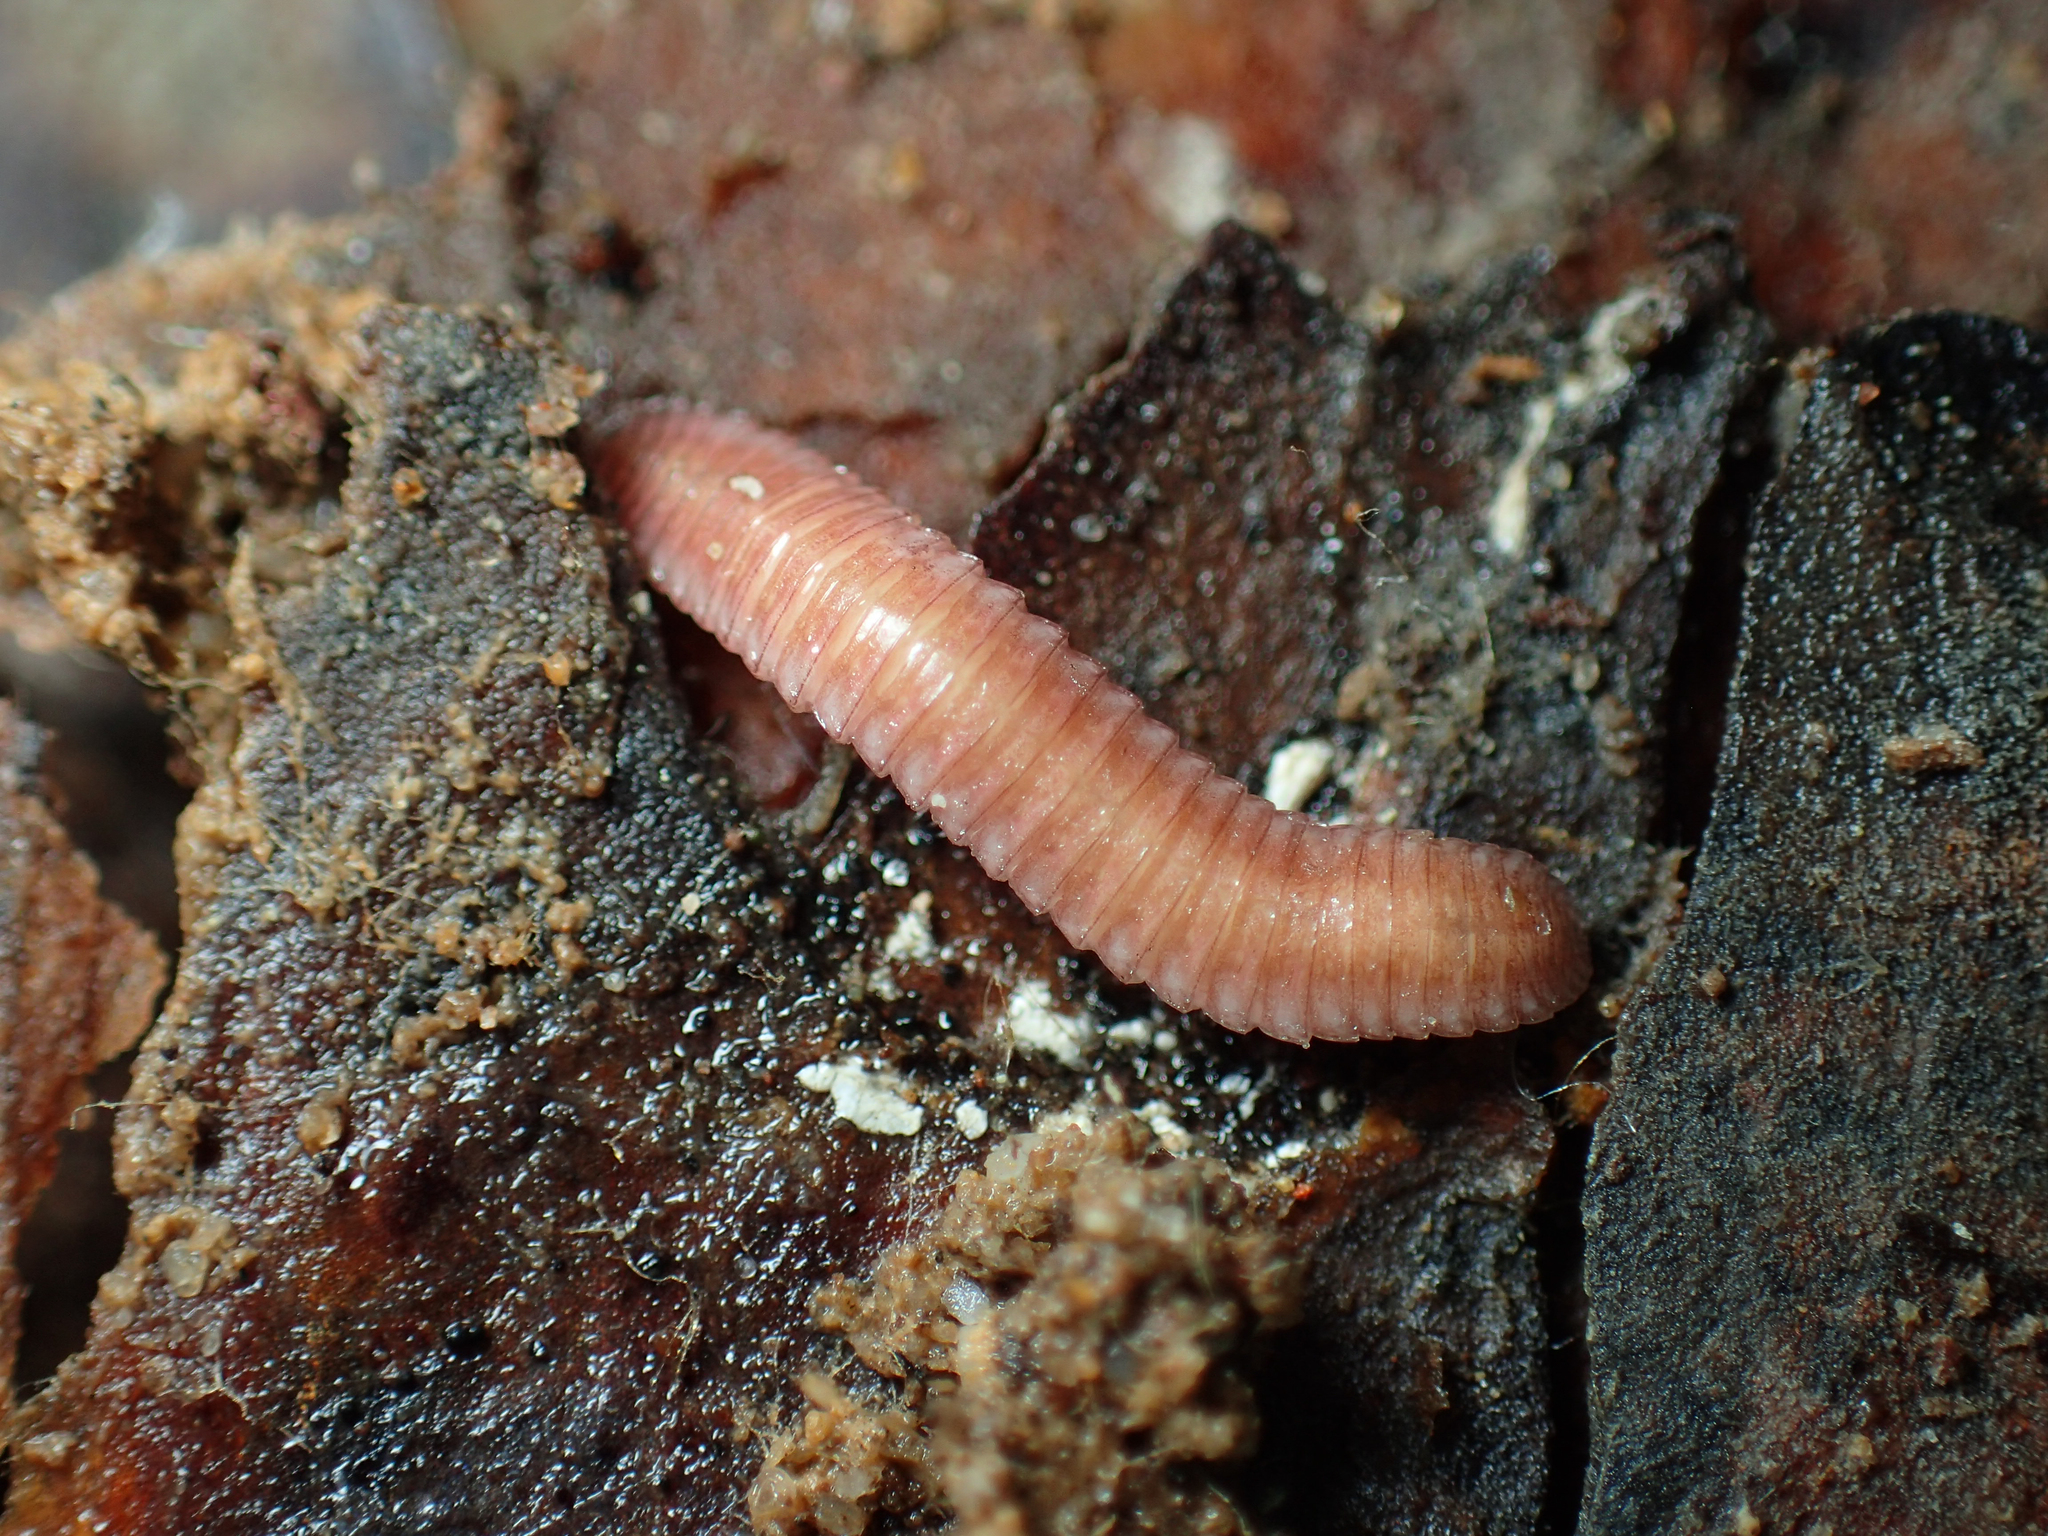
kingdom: Animalia
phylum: Arthropoda
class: Diplopoda
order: Polyzoniida
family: Hirudisomatidae
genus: Octoglena
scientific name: Octoglena gracilipes
